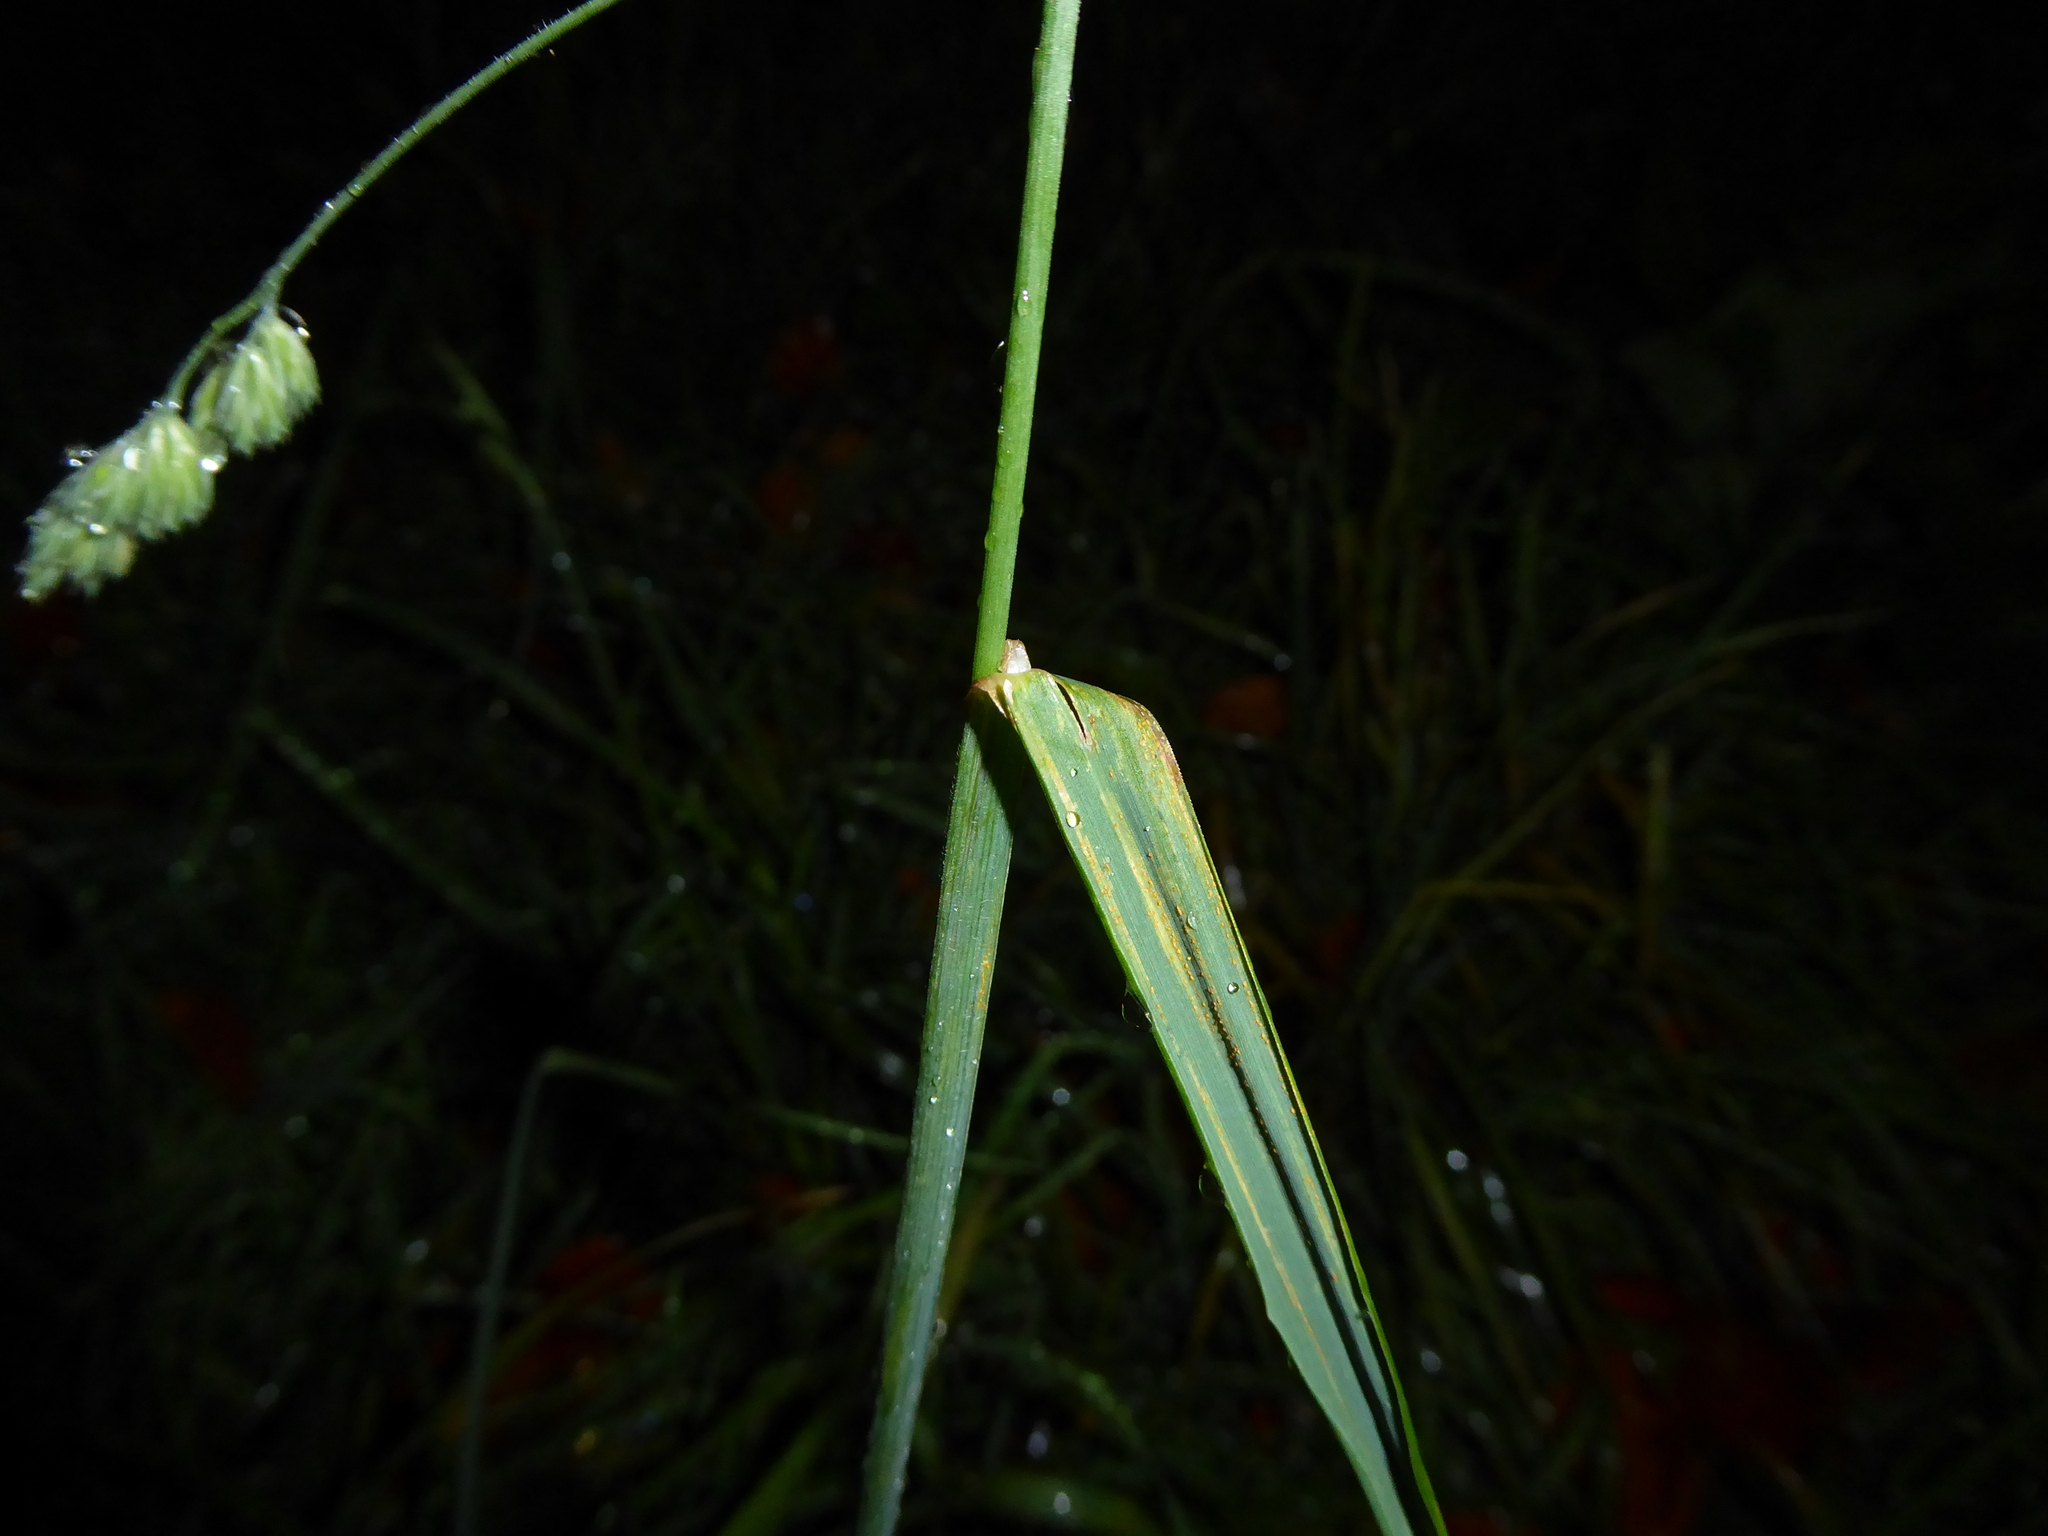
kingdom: Plantae
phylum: Tracheophyta
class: Liliopsida
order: Poales
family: Poaceae
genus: Dactylis
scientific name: Dactylis glomerata
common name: Orchardgrass
